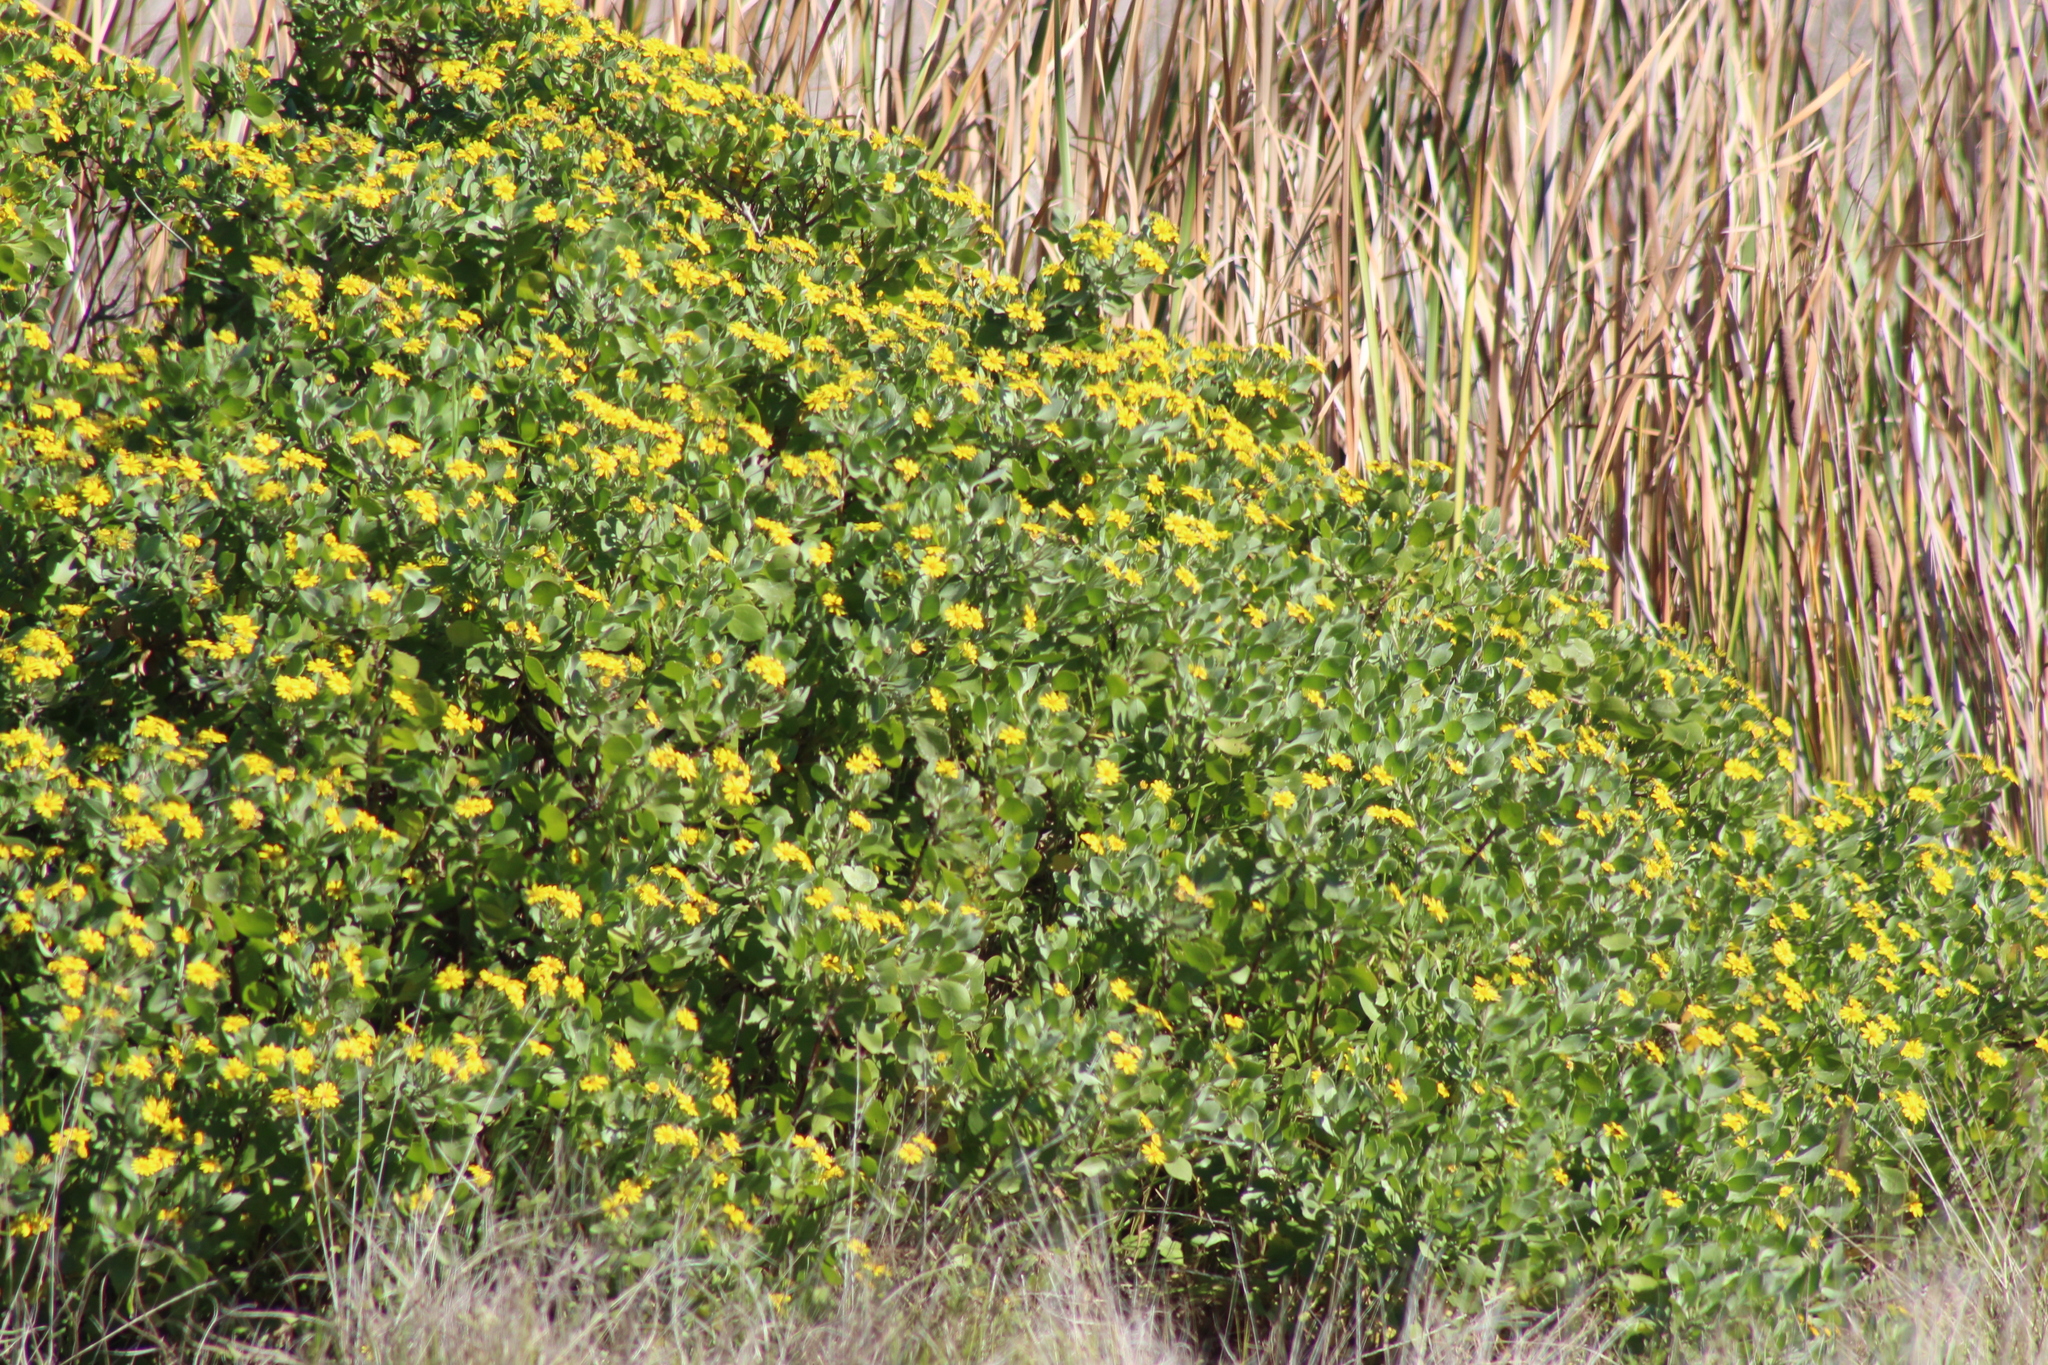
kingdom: Plantae
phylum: Tracheophyta
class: Magnoliopsida
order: Asterales
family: Asteraceae
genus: Osteospermum
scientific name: Osteospermum moniliferum
